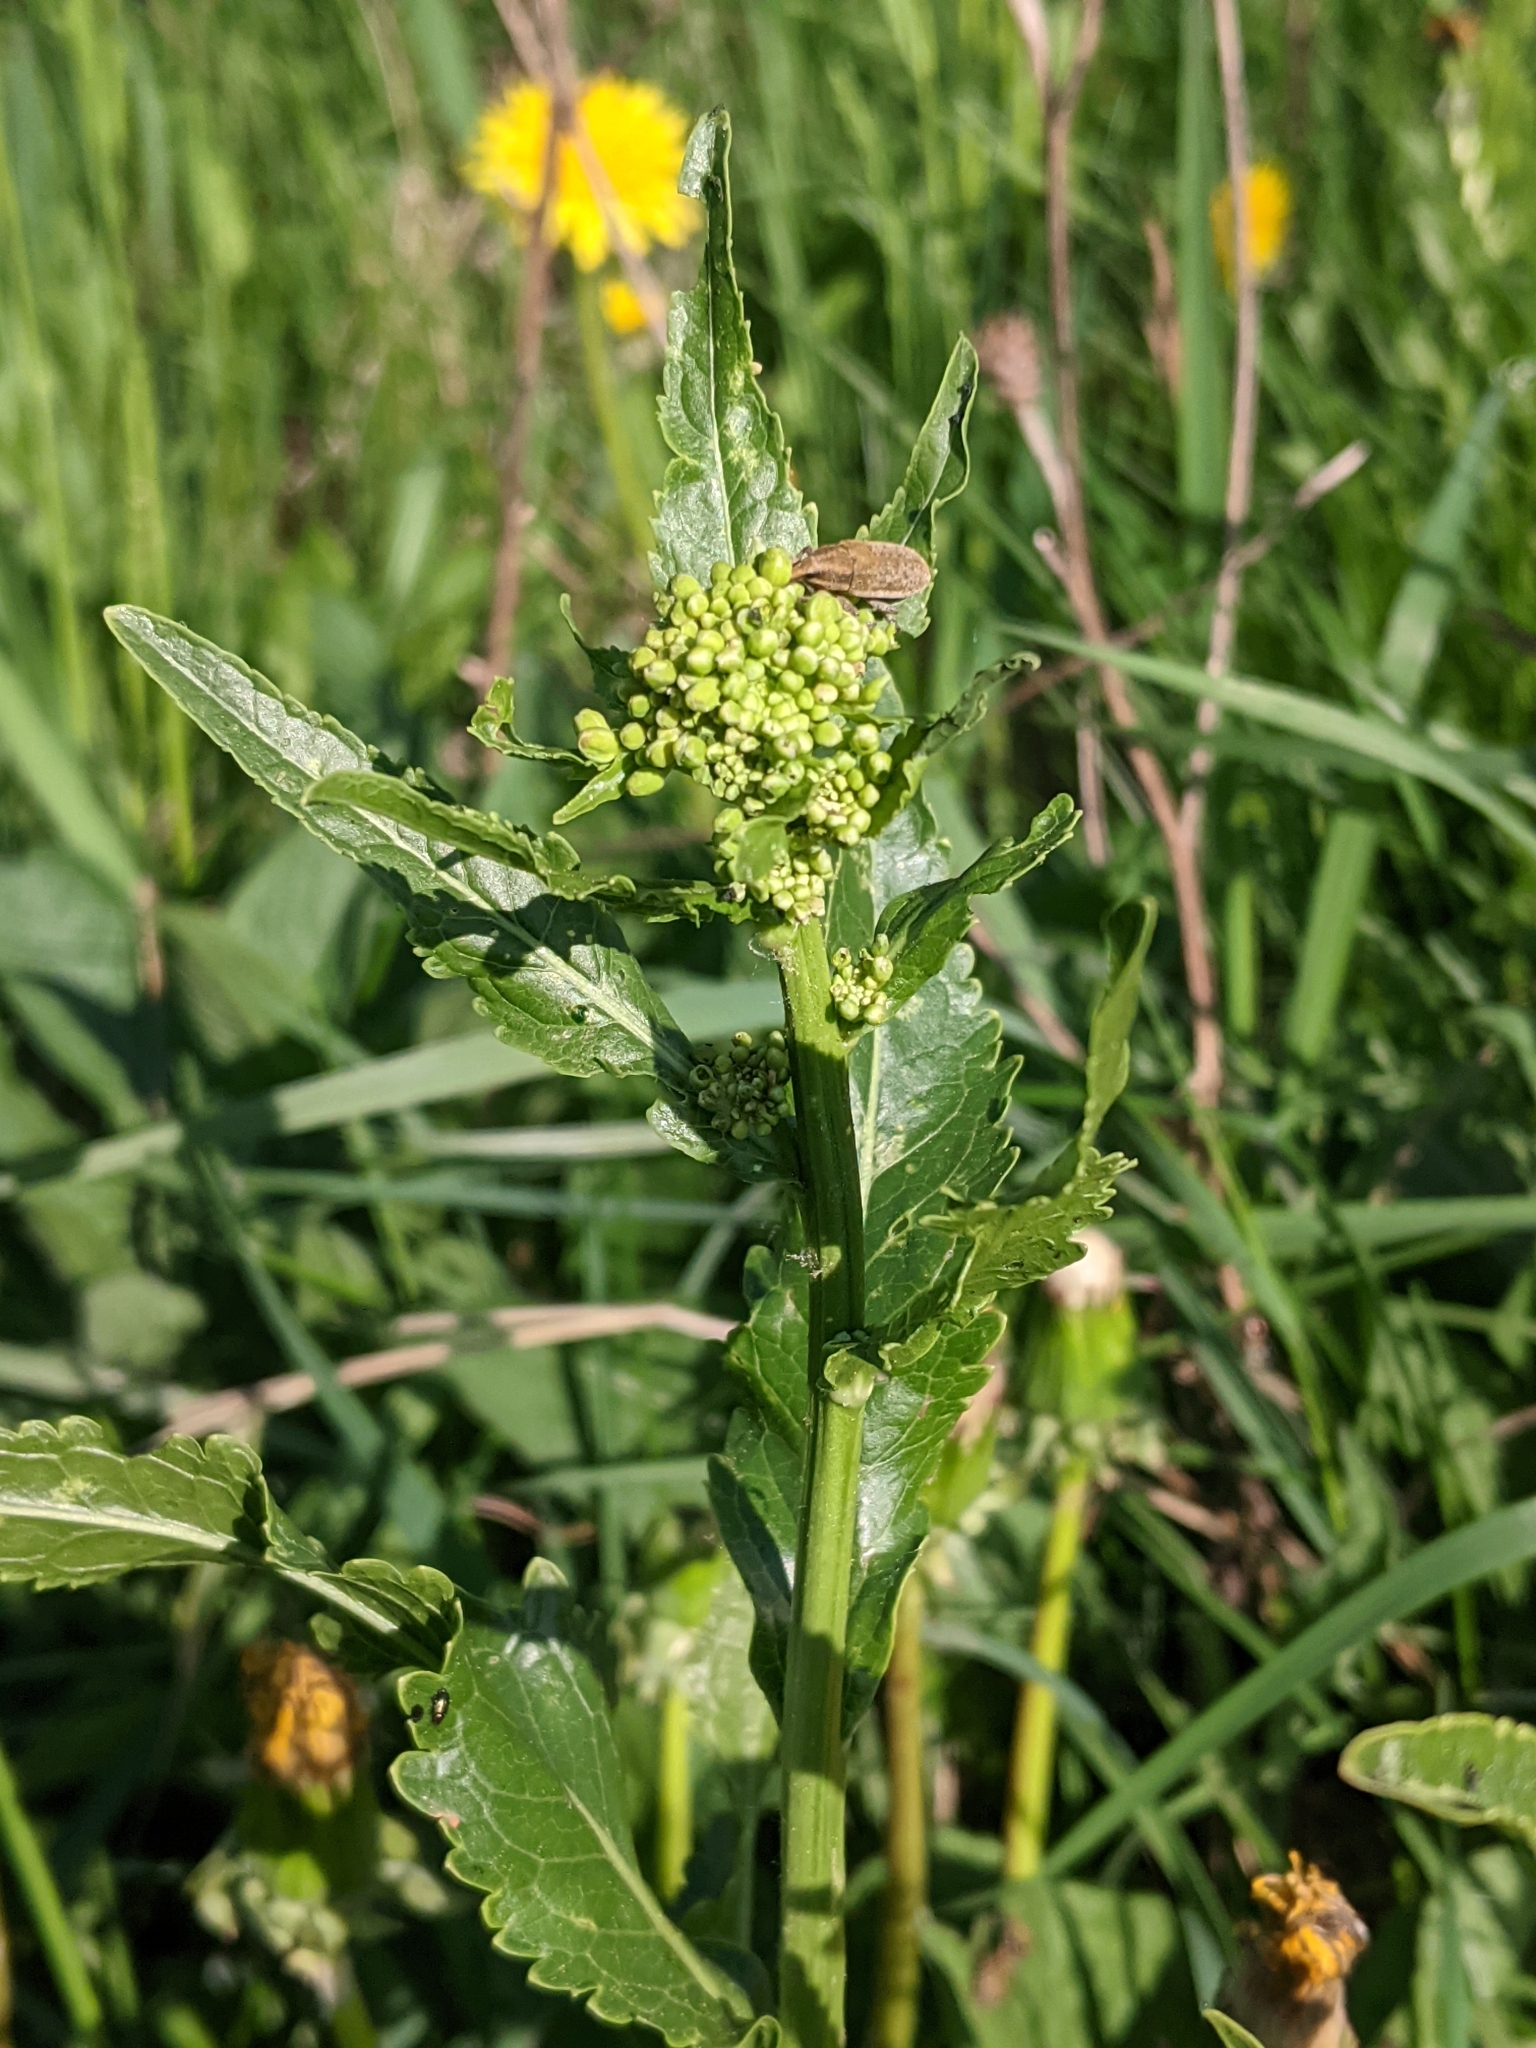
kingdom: Plantae
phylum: Tracheophyta
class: Magnoliopsida
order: Brassicales
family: Brassicaceae
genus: Armoracia
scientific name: Armoracia rusticana
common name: Horseradish
